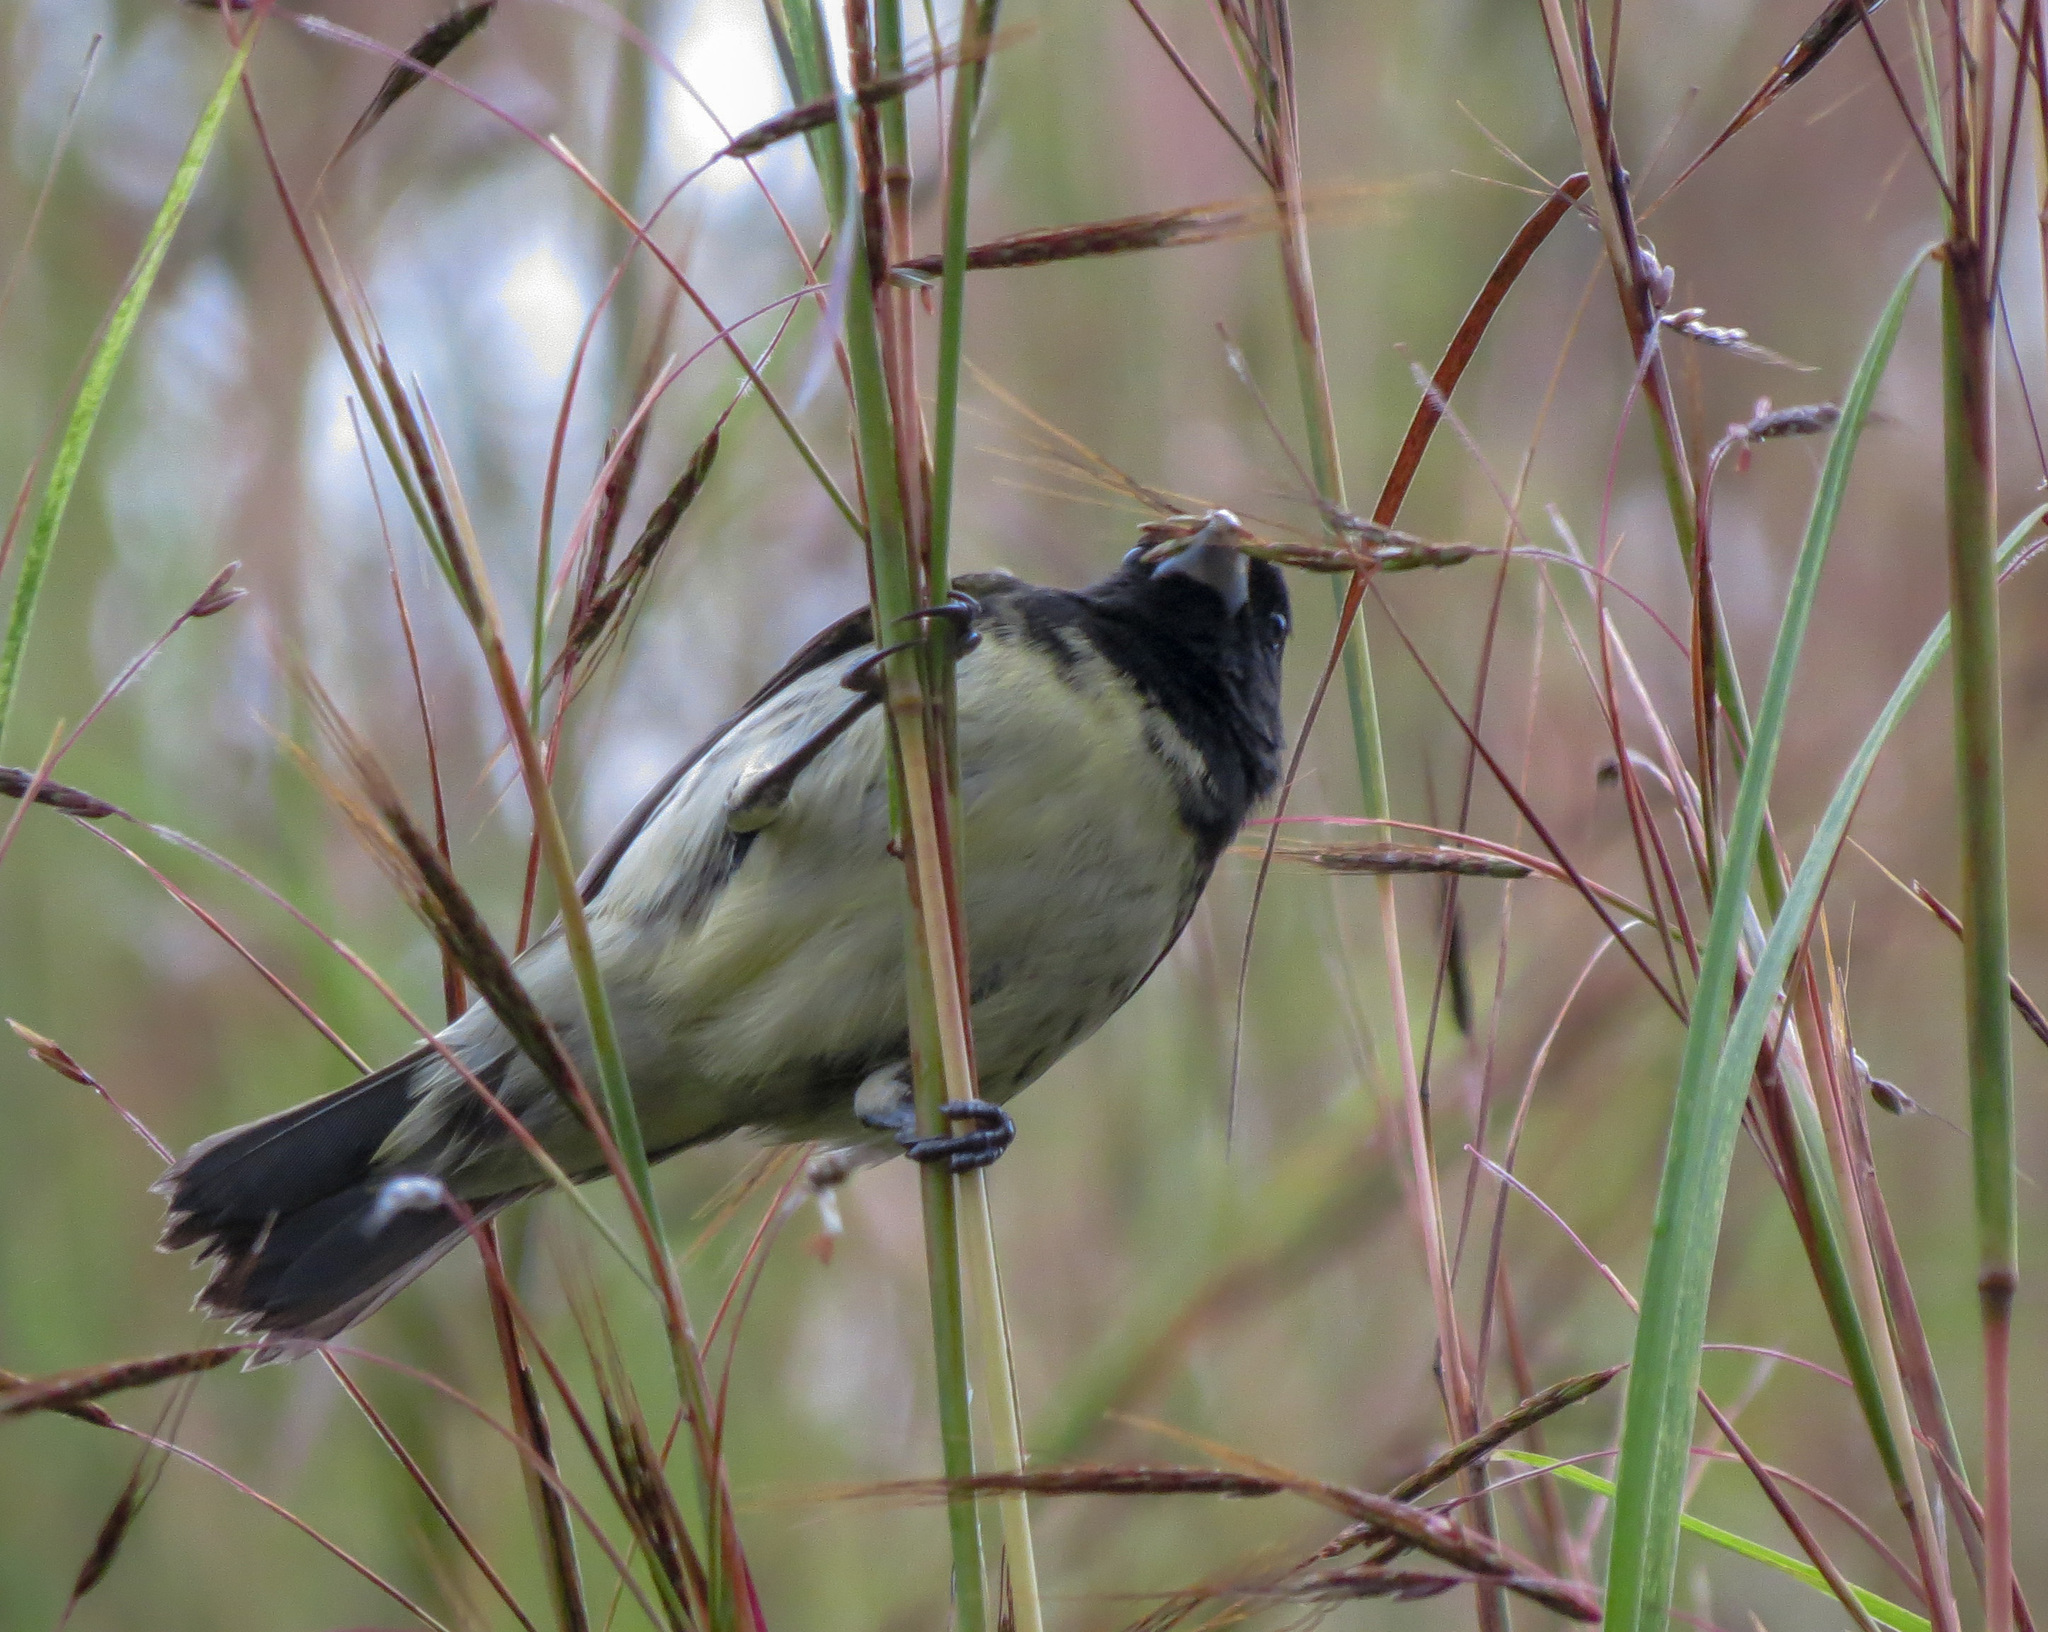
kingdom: Animalia
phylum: Chordata
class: Aves
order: Passeriformes
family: Thraupidae
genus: Sporophila
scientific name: Sporophila nigricollis
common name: Yellow-bellied seedeater
